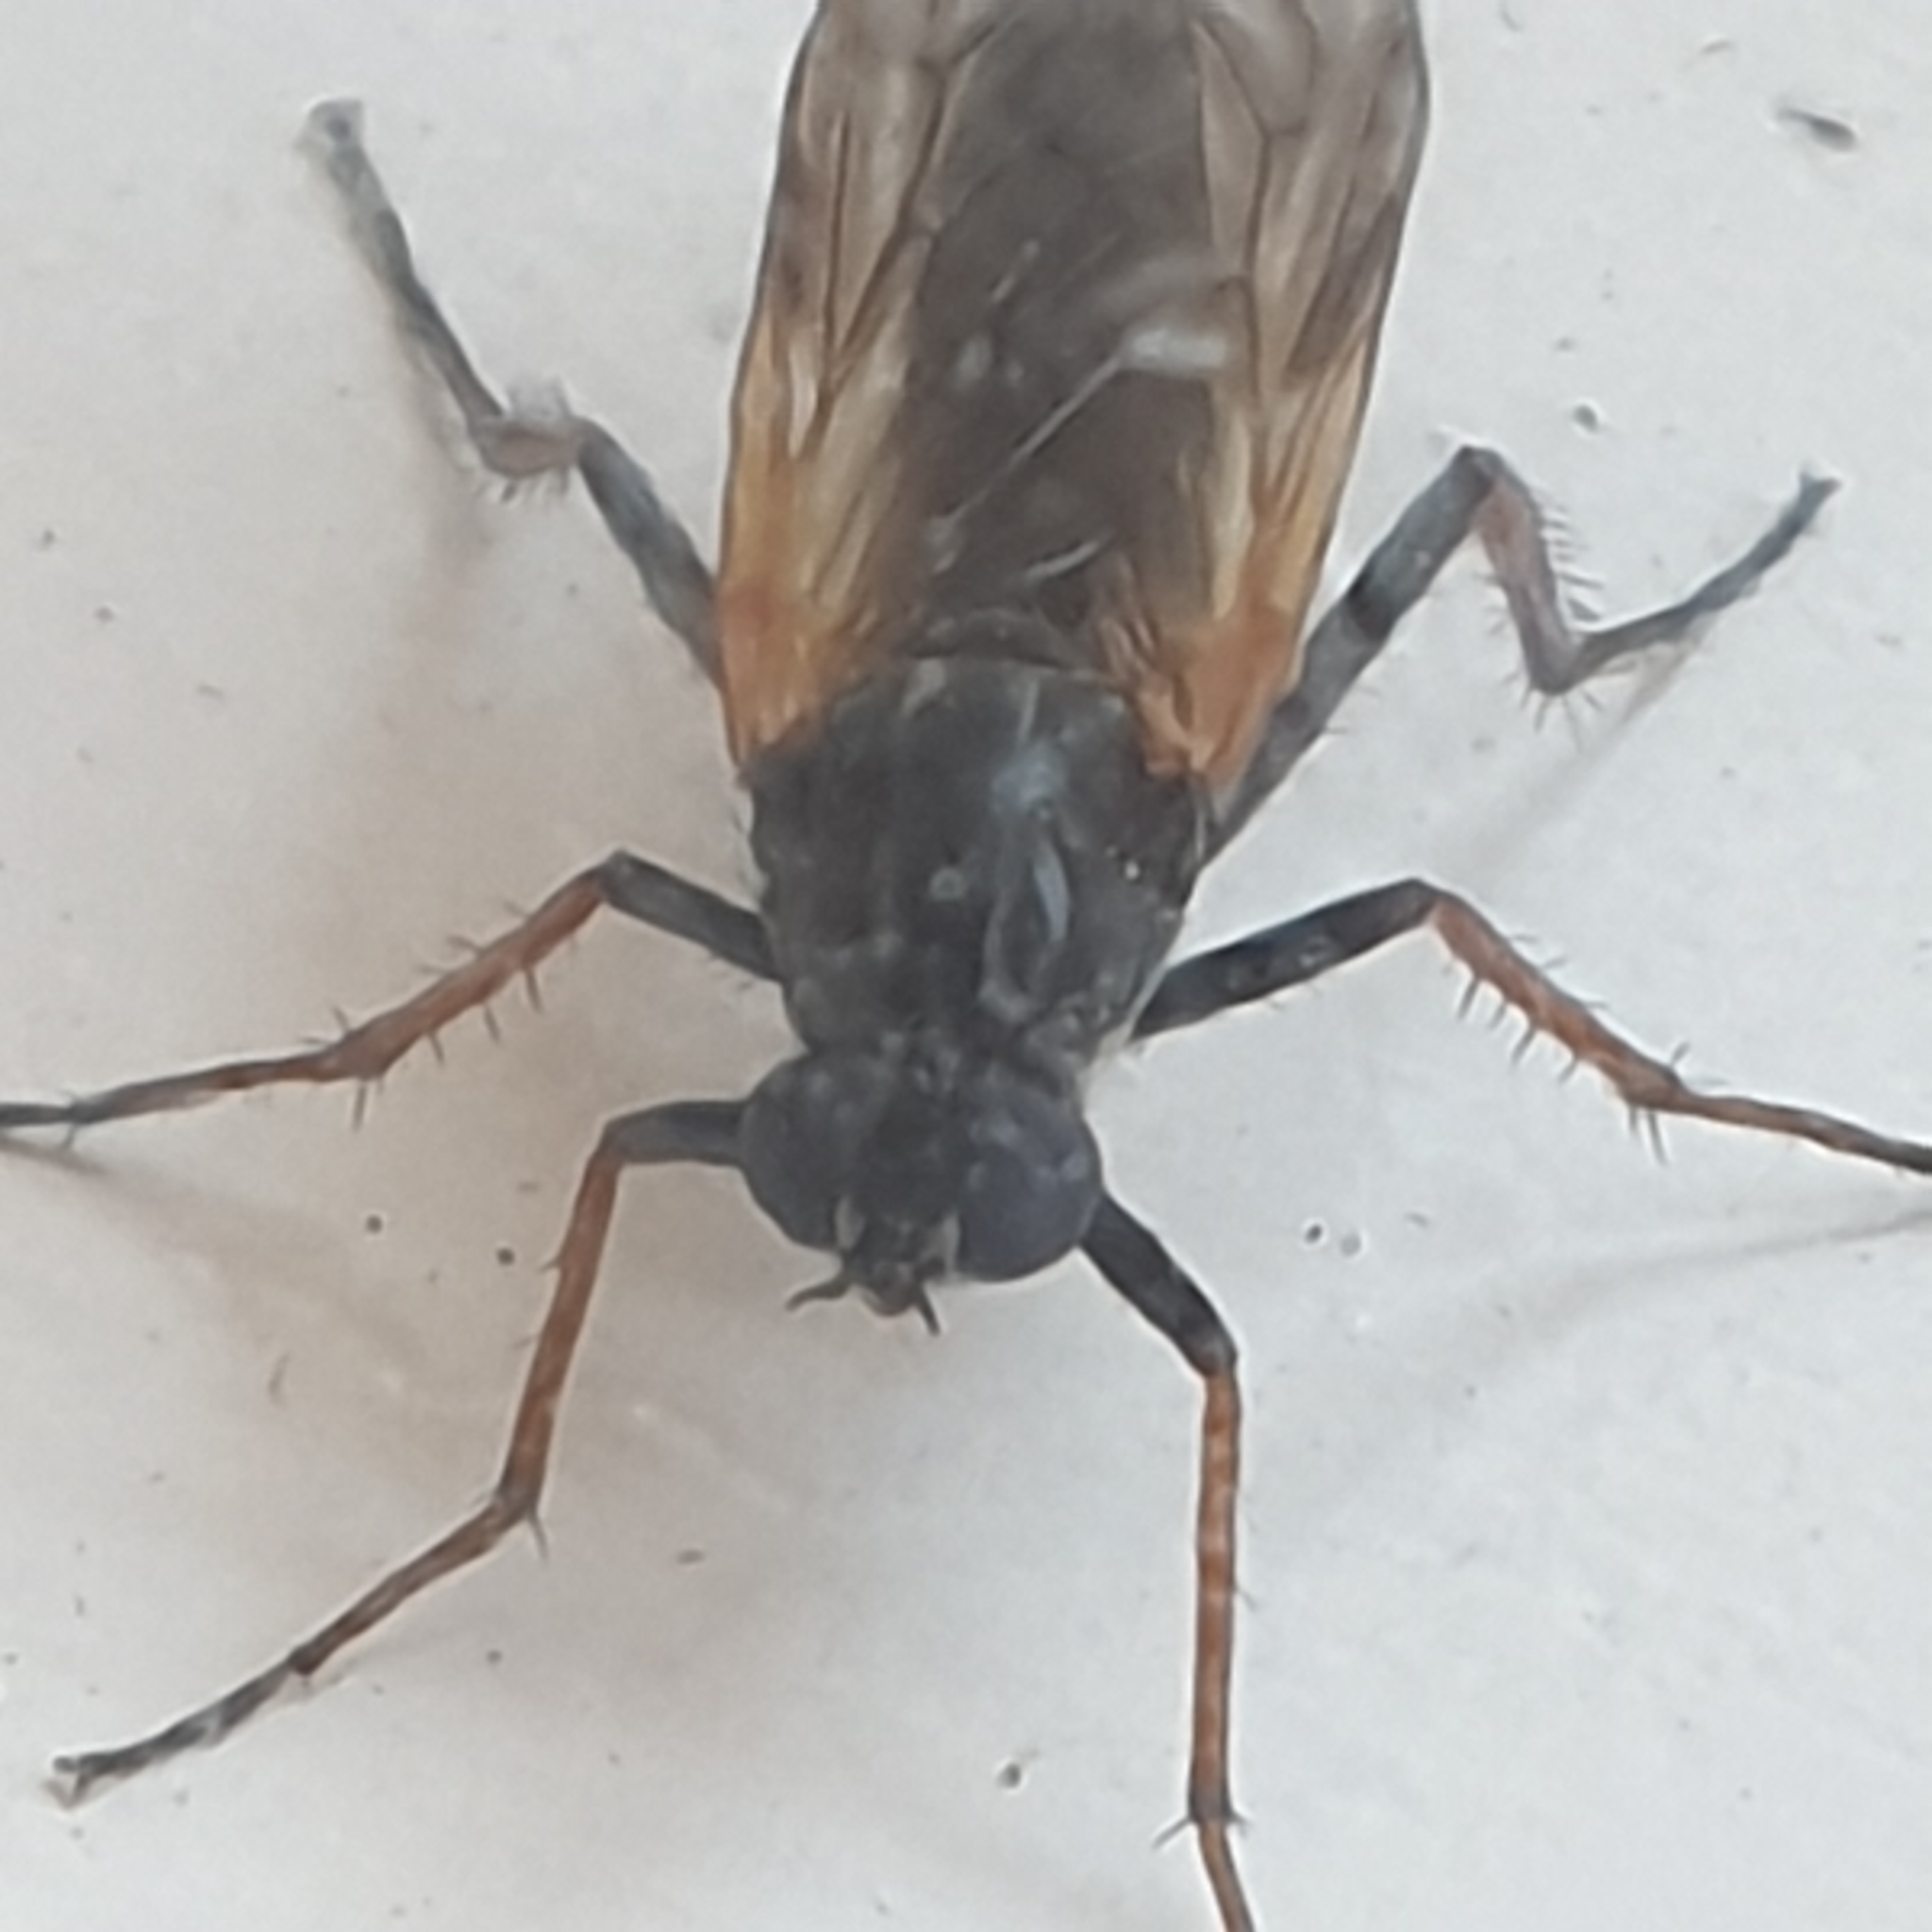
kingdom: Animalia
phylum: Arthropoda
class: Insecta
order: Diptera
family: Therevidae
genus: Pandivirilia
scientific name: Pandivirilia eximia
